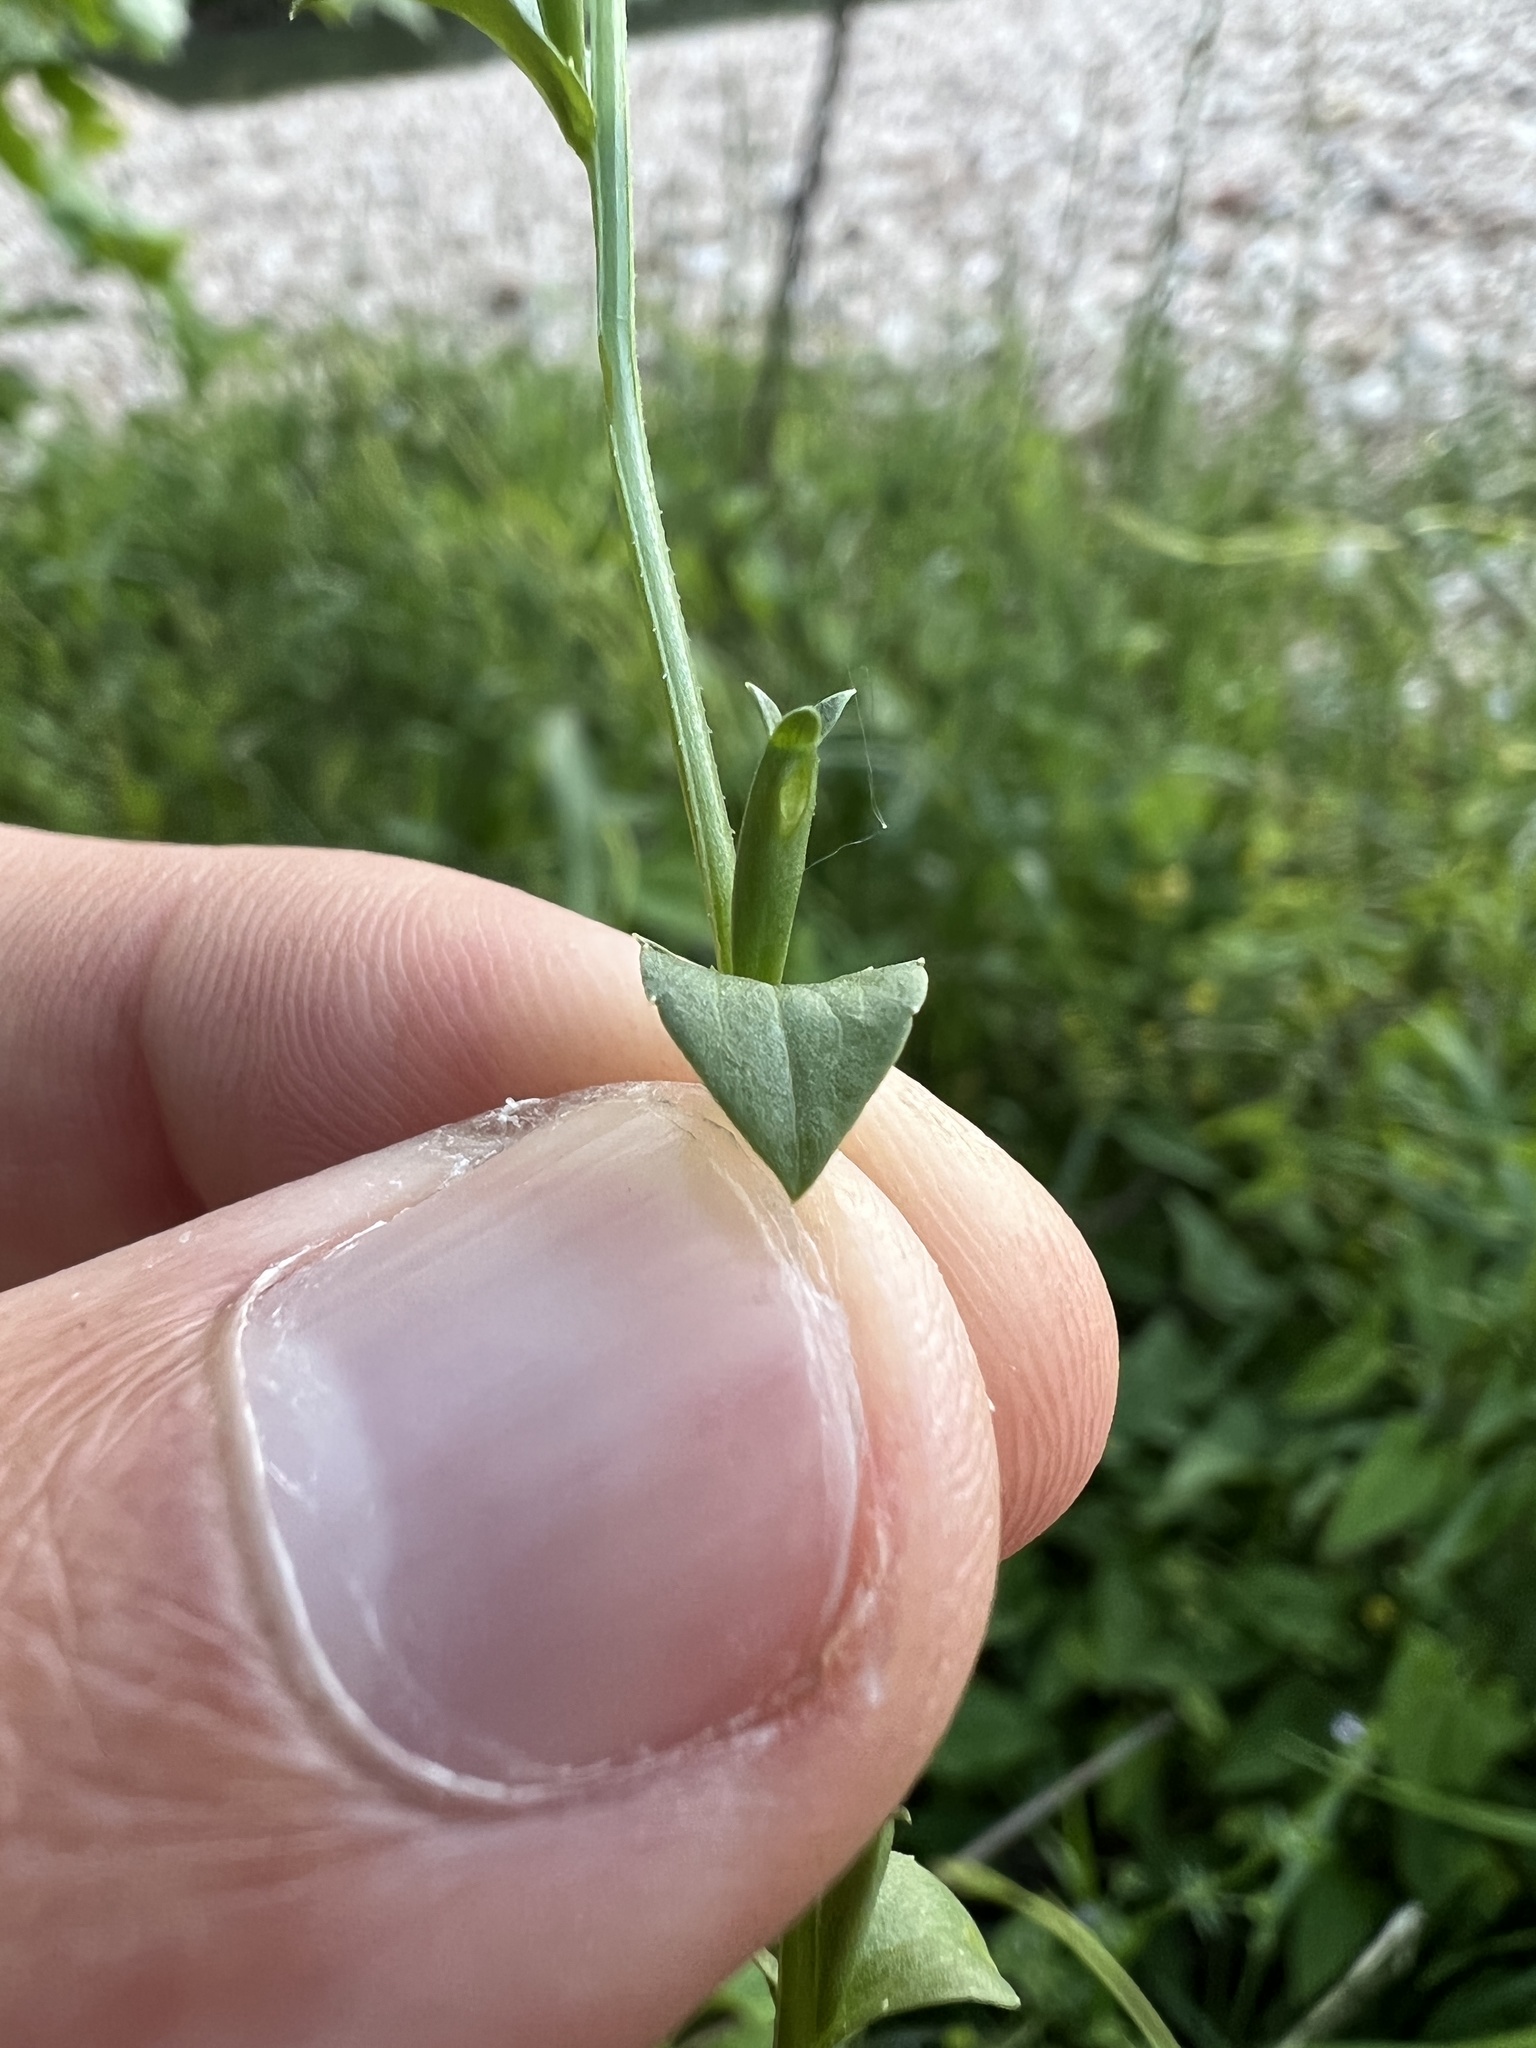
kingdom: Plantae
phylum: Tracheophyta
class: Magnoliopsida
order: Asterales
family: Campanulaceae
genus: Triodanis
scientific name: Triodanis biflora
